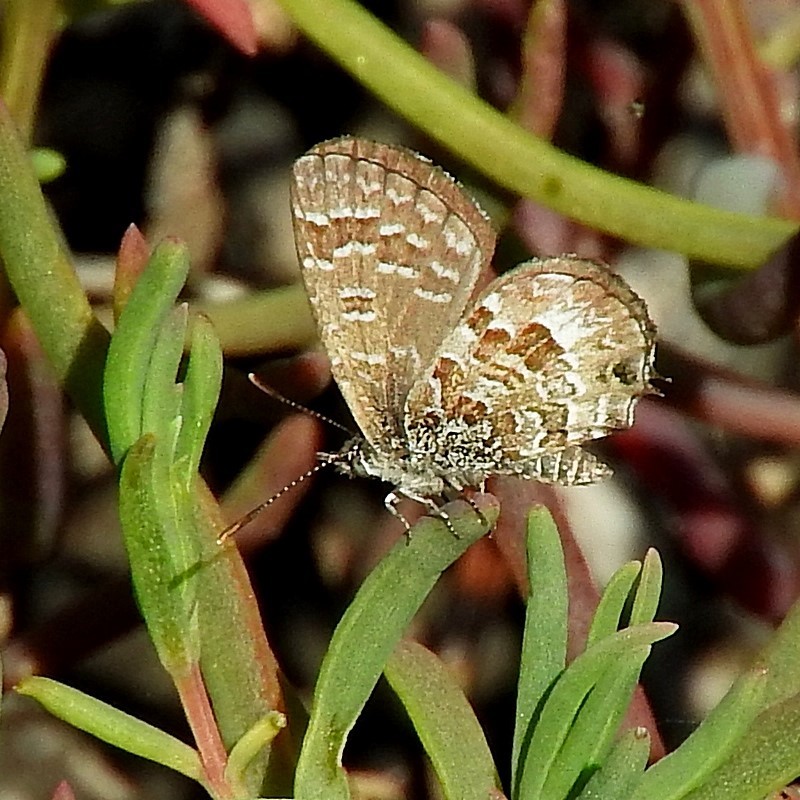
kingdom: Animalia
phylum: Arthropoda
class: Insecta
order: Lepidoptera
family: Lycaenidae
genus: Theclinesthes
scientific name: Theclinesthes sulpitius
